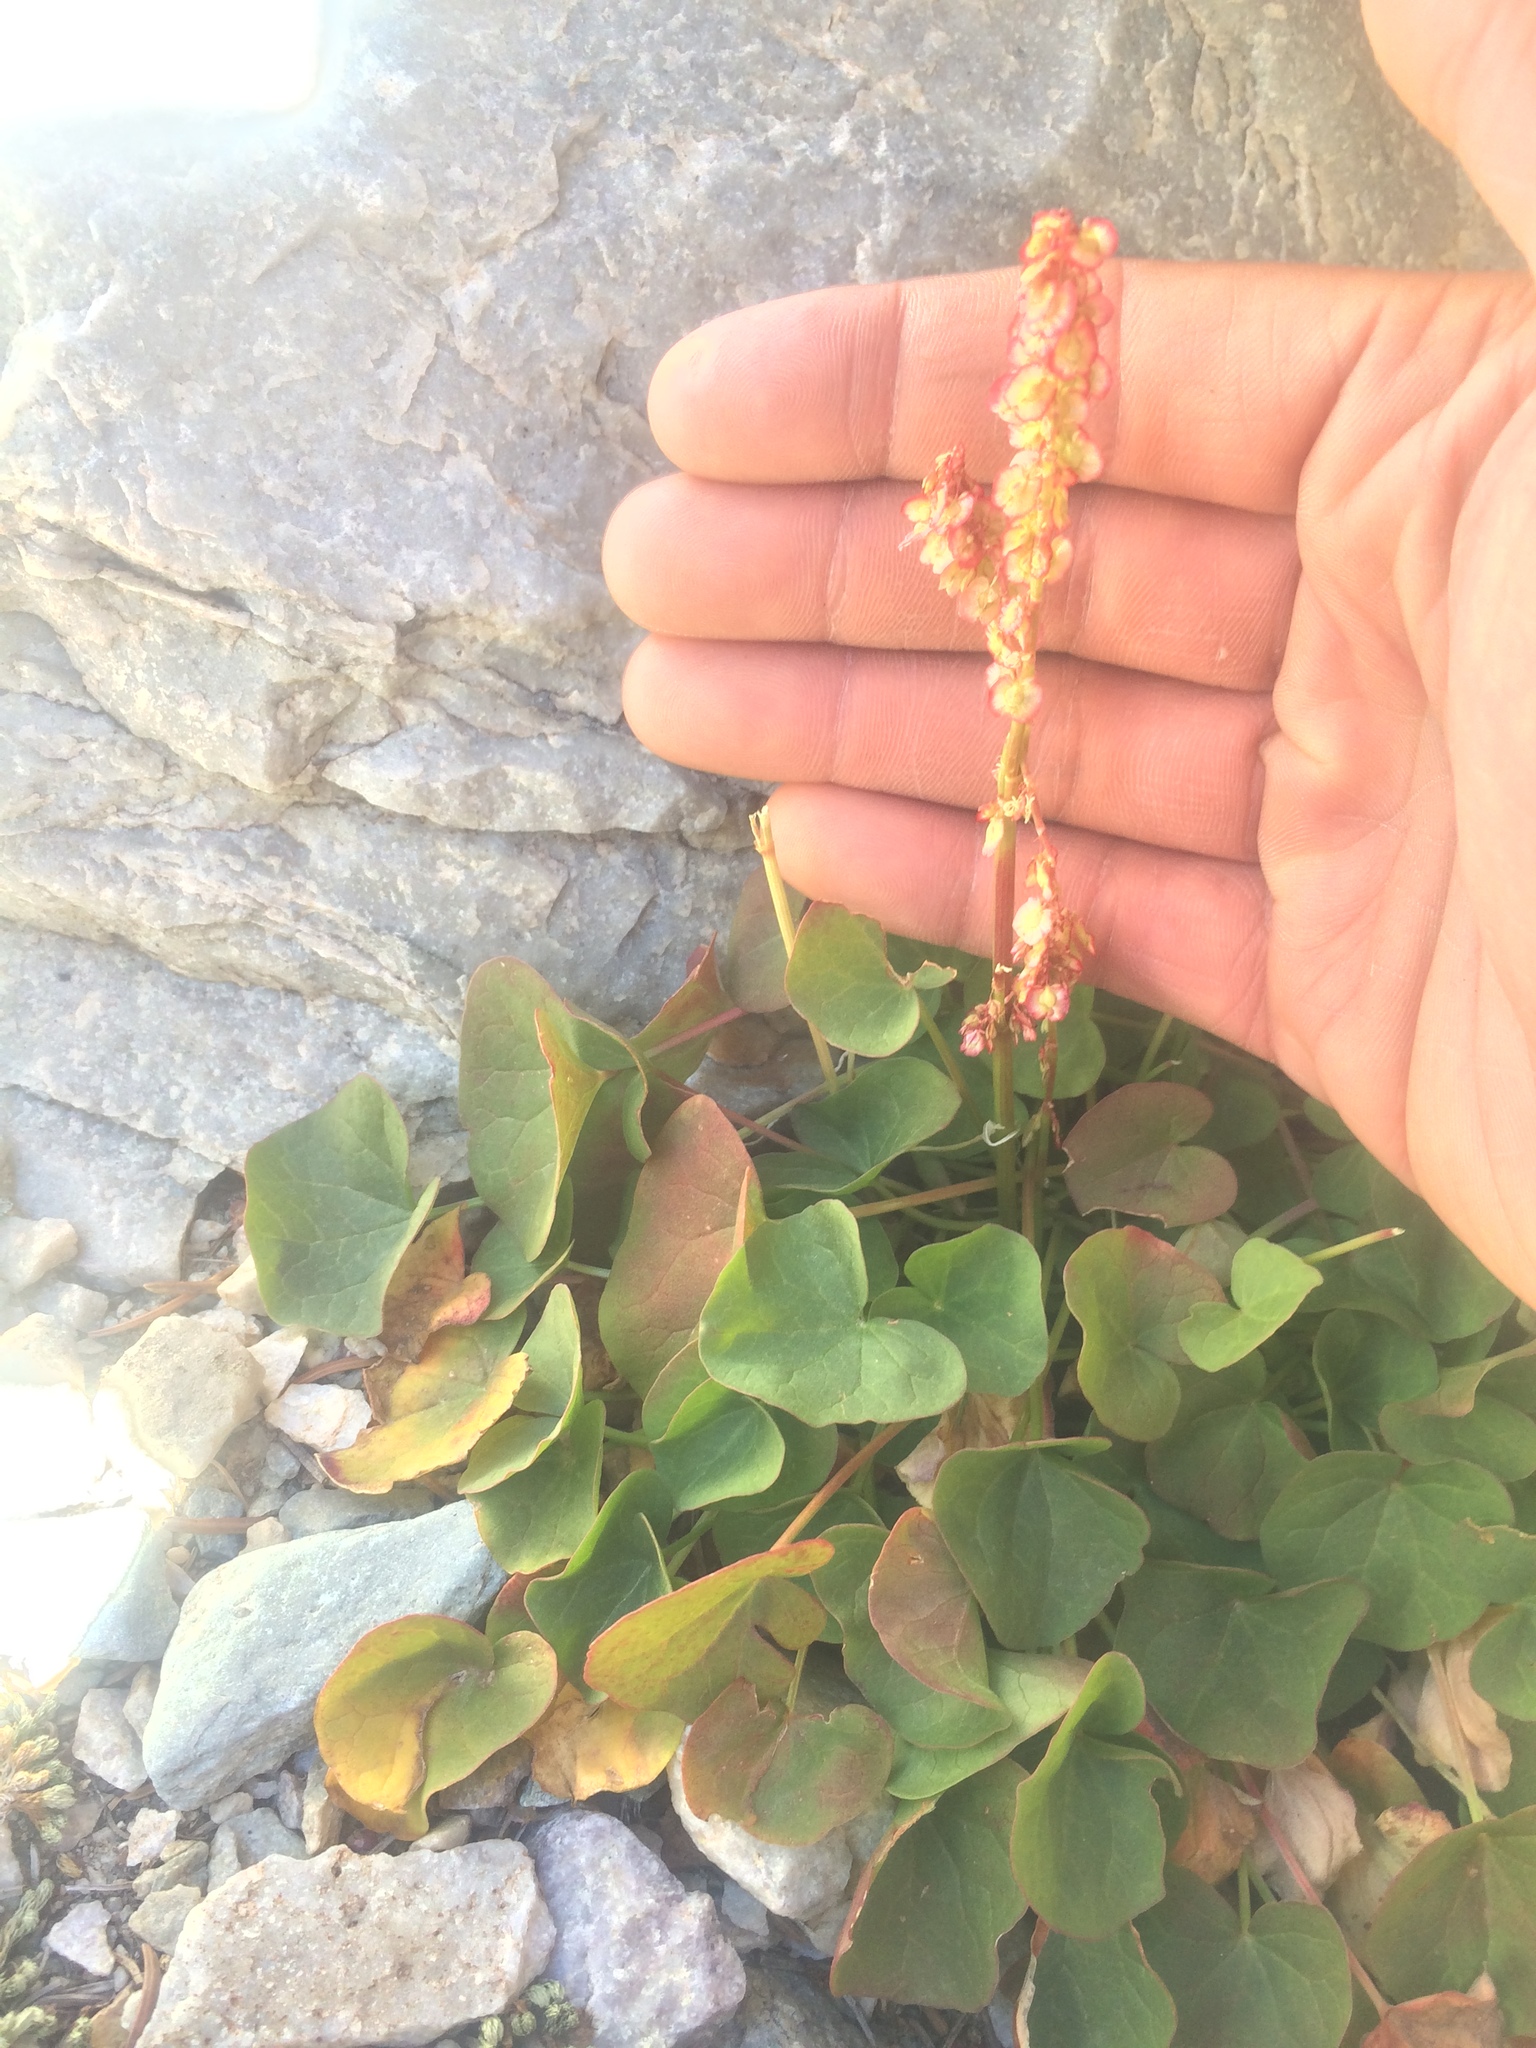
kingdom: Plantae
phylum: Tracheophyta
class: Magnoliopsida
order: Caryophyllales
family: Polygonaceae
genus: Oxyria
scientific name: Oxyria digyna
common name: Alpine mountain-sorrel
